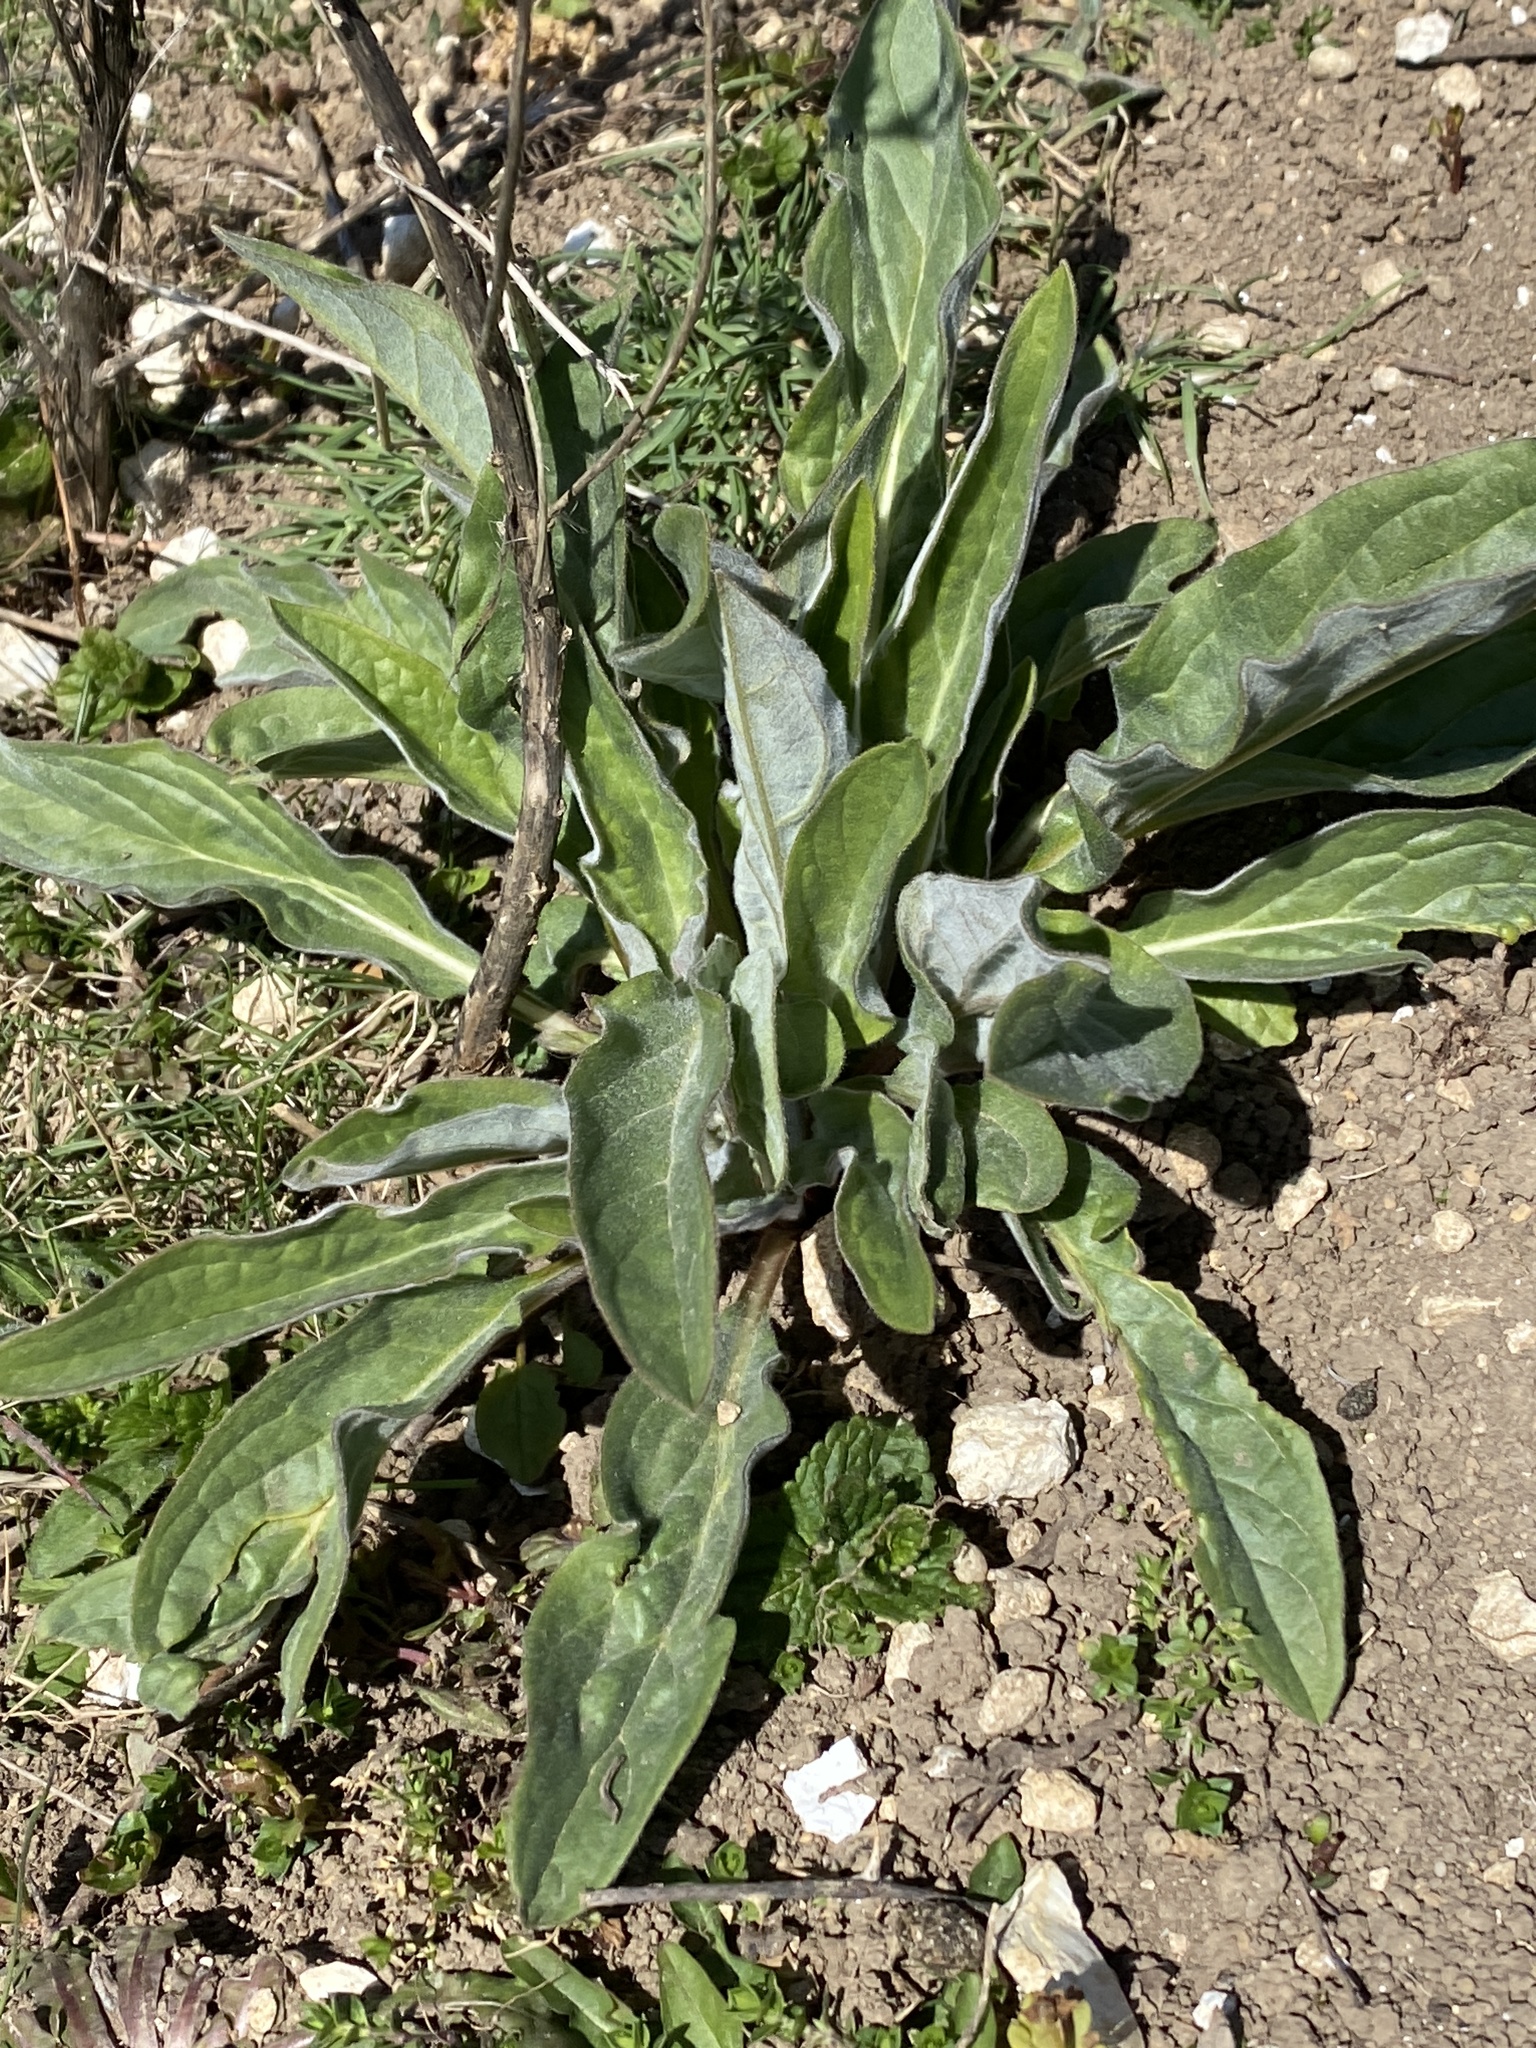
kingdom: Plantae
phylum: Tracheophyta
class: Magnoliopsida
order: Boraginales
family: Boraginaceae
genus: Cynoglossum
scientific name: Cynoglossum officinale
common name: Hound's-tongue
